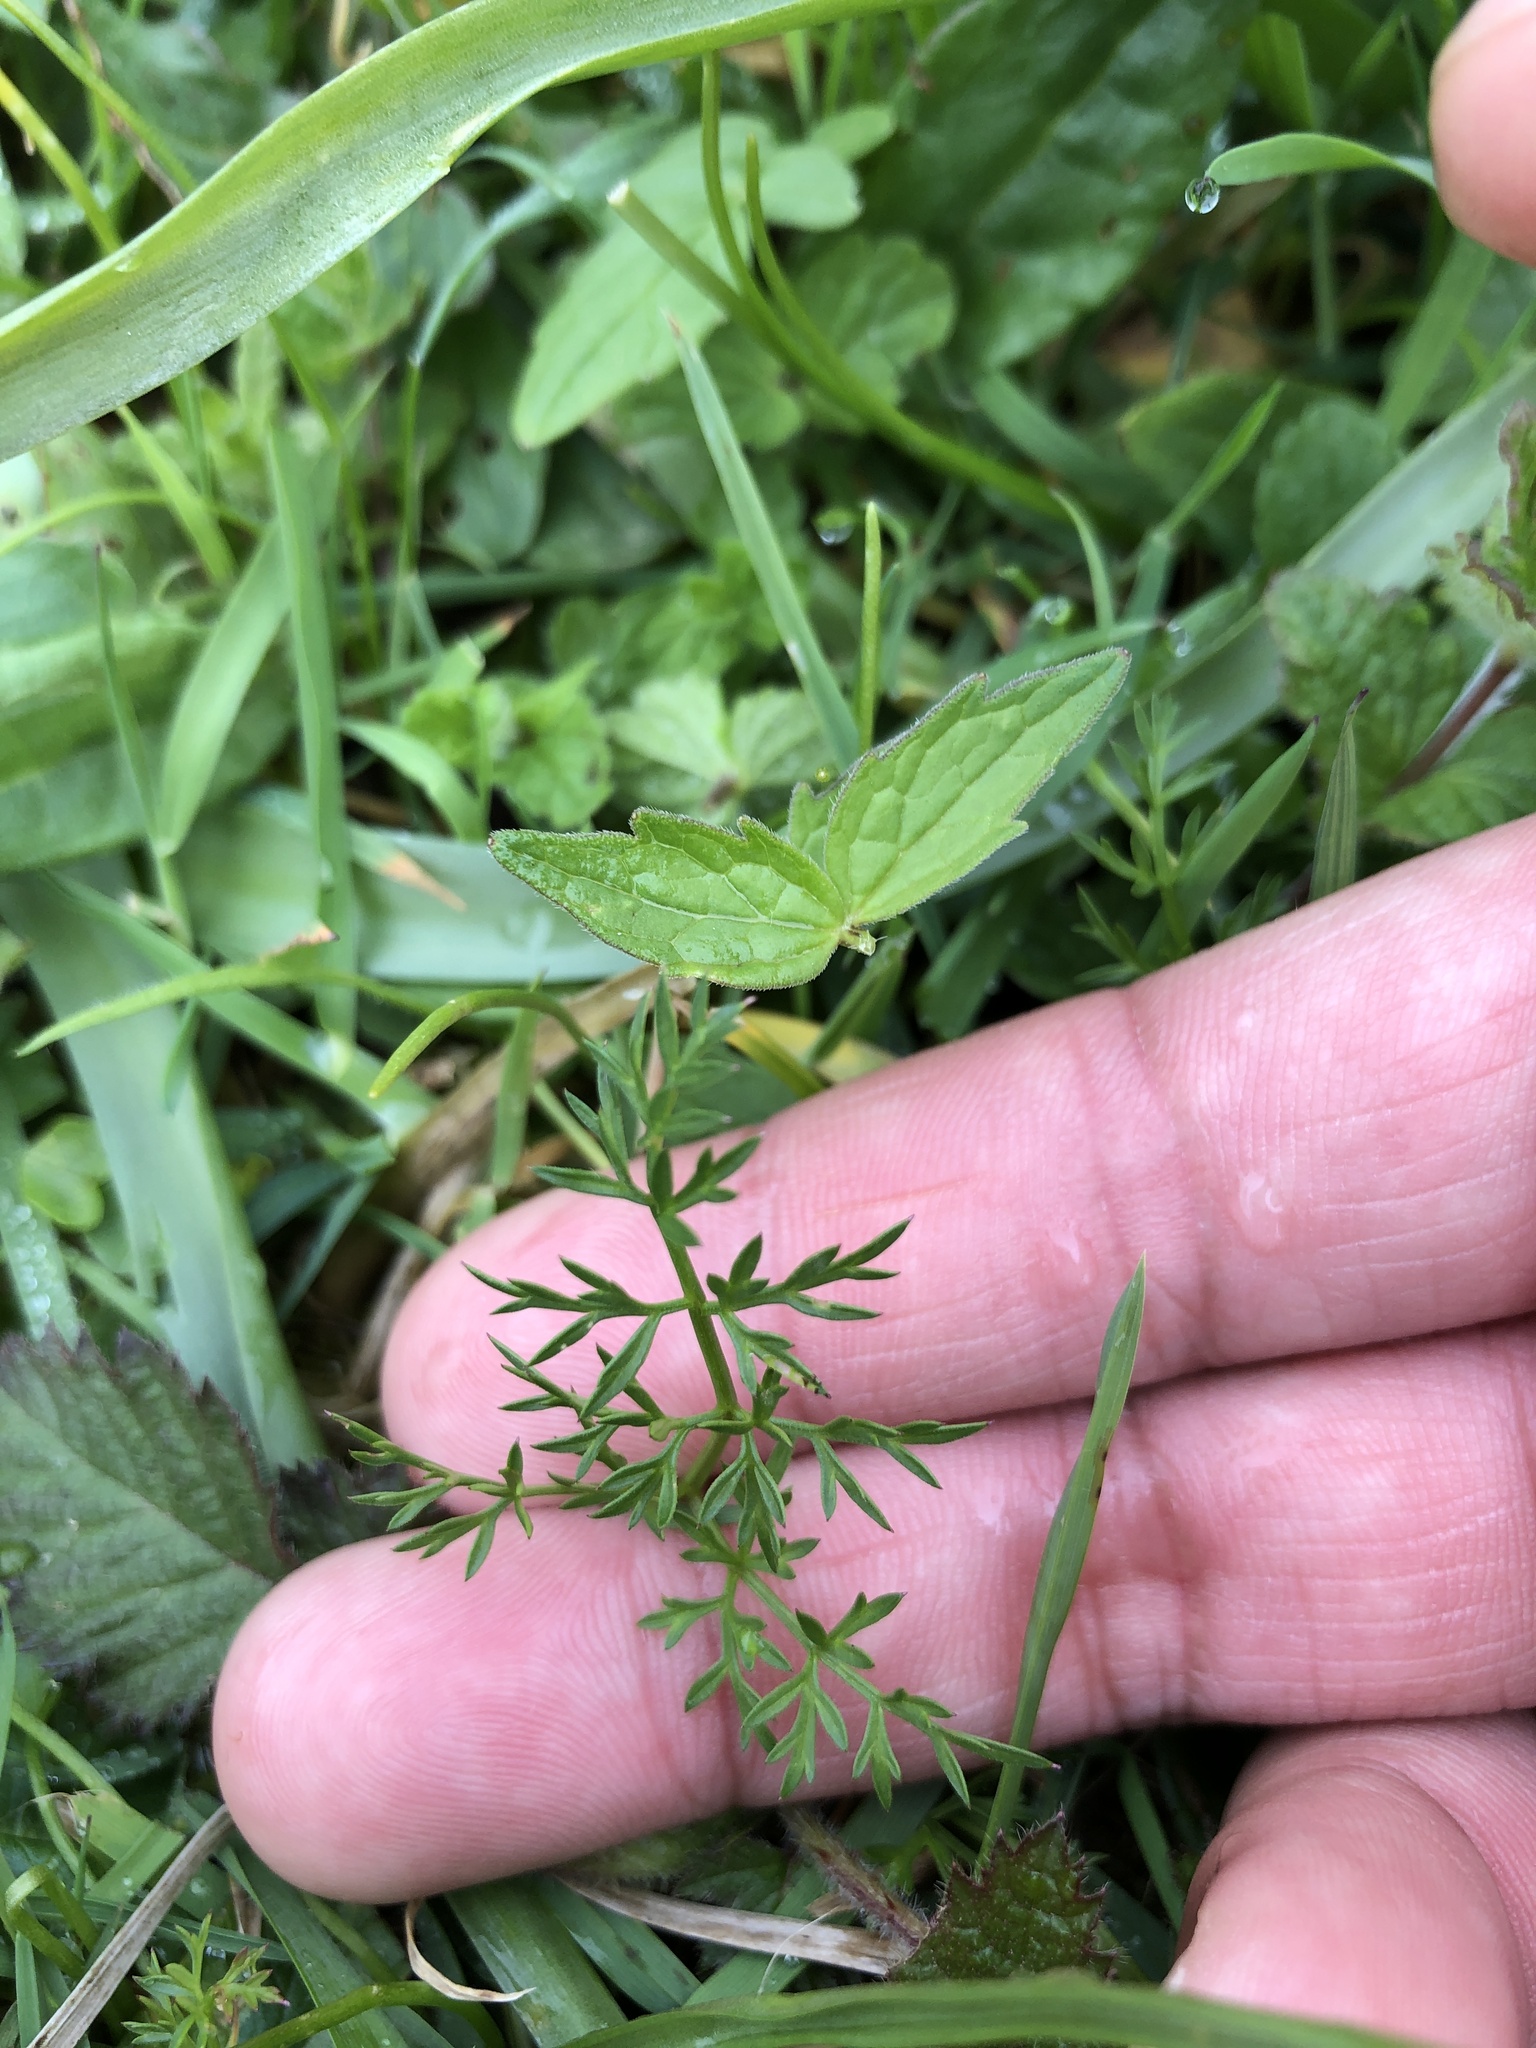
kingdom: Plantae
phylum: Tracheophyta
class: Magnoliopsida
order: Apiales
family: Apiaceae
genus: Conopodium
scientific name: Conopodium majus
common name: Pignut
